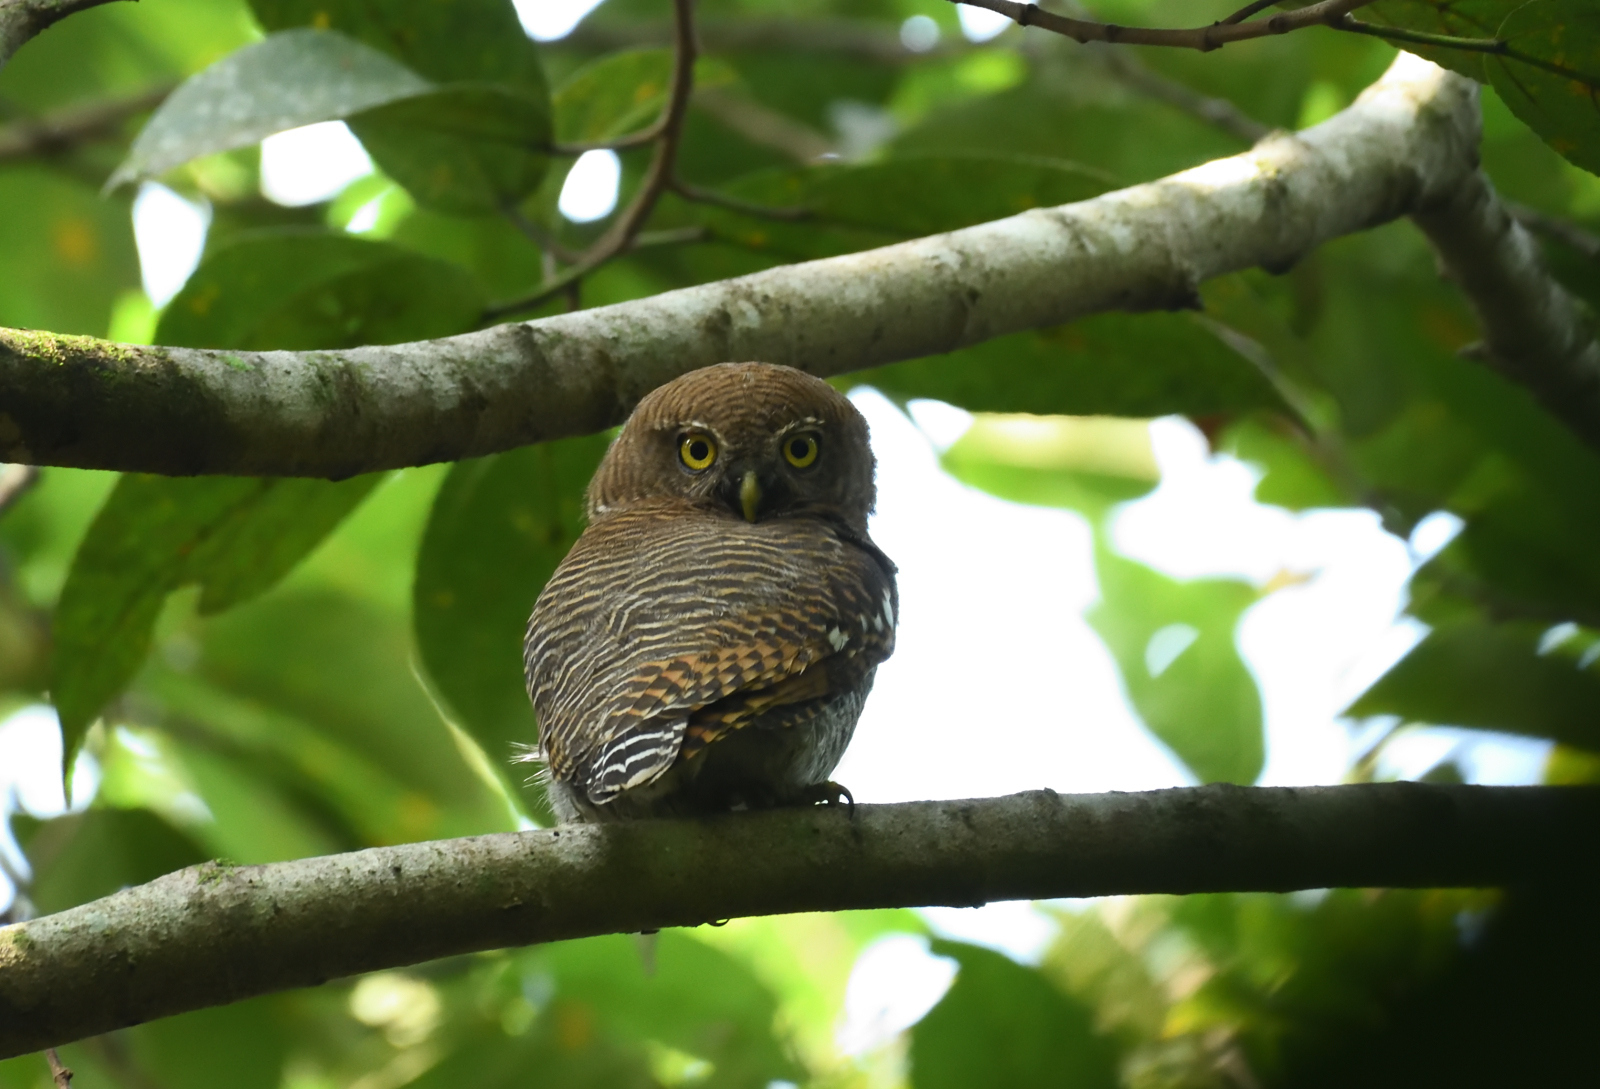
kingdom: Animalia
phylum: Chordata
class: Aves
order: Strigiformes
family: Strigidae
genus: Glaucidium
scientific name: Glaucidium radiatum
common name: Jungle owlet
